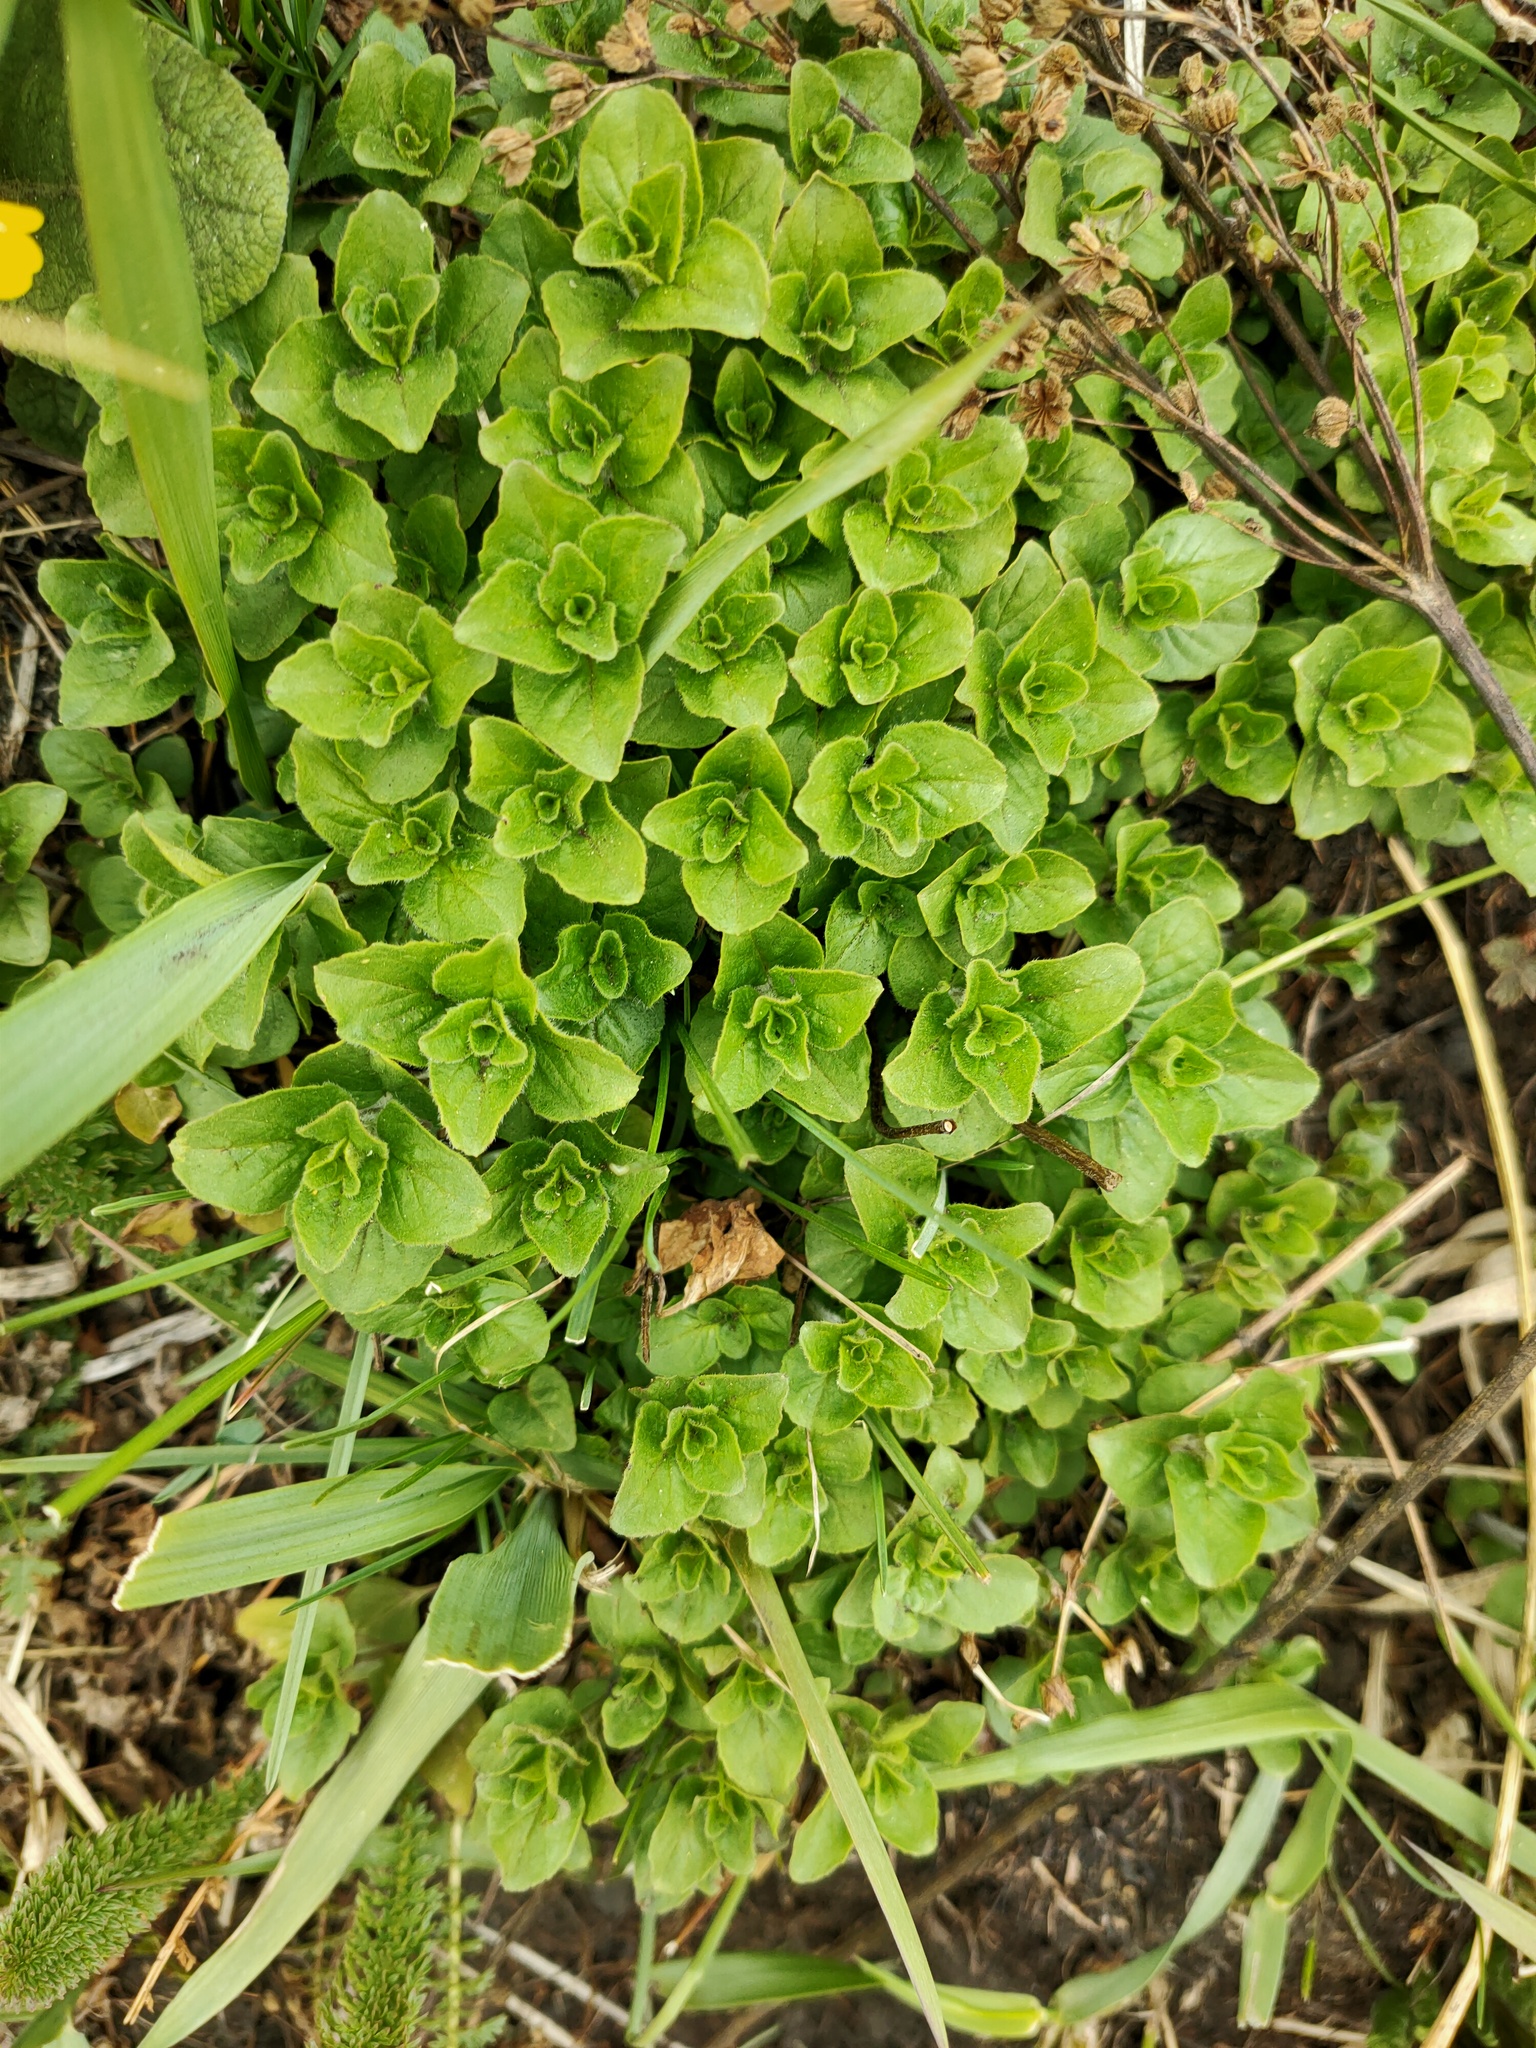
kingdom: Plantae
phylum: Tracheophyta
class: Magnoliopsida
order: Lamiales
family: Lamiaceae
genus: Origanum
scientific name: Origanum vulgare
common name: Wild marjoram
